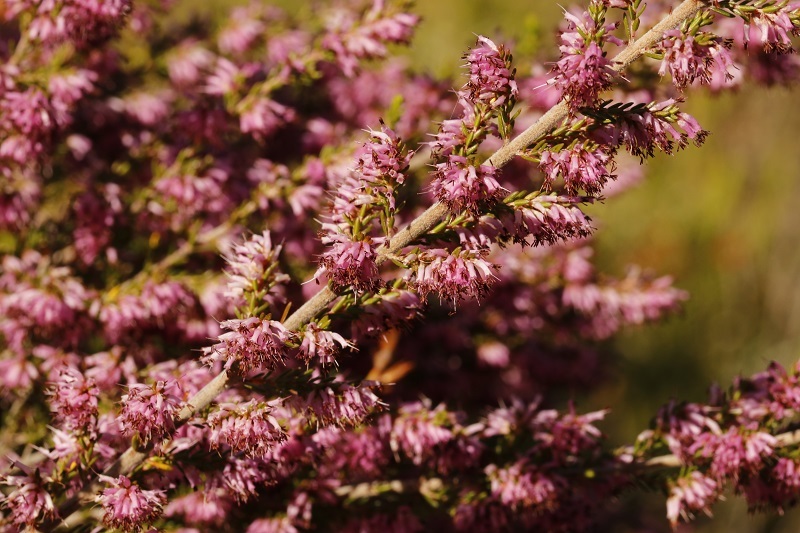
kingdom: Plantae
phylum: Tracheophyta
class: Magnoliopsida
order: Ericales
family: Ericaceae
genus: Erica
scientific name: Erica uberiflora
